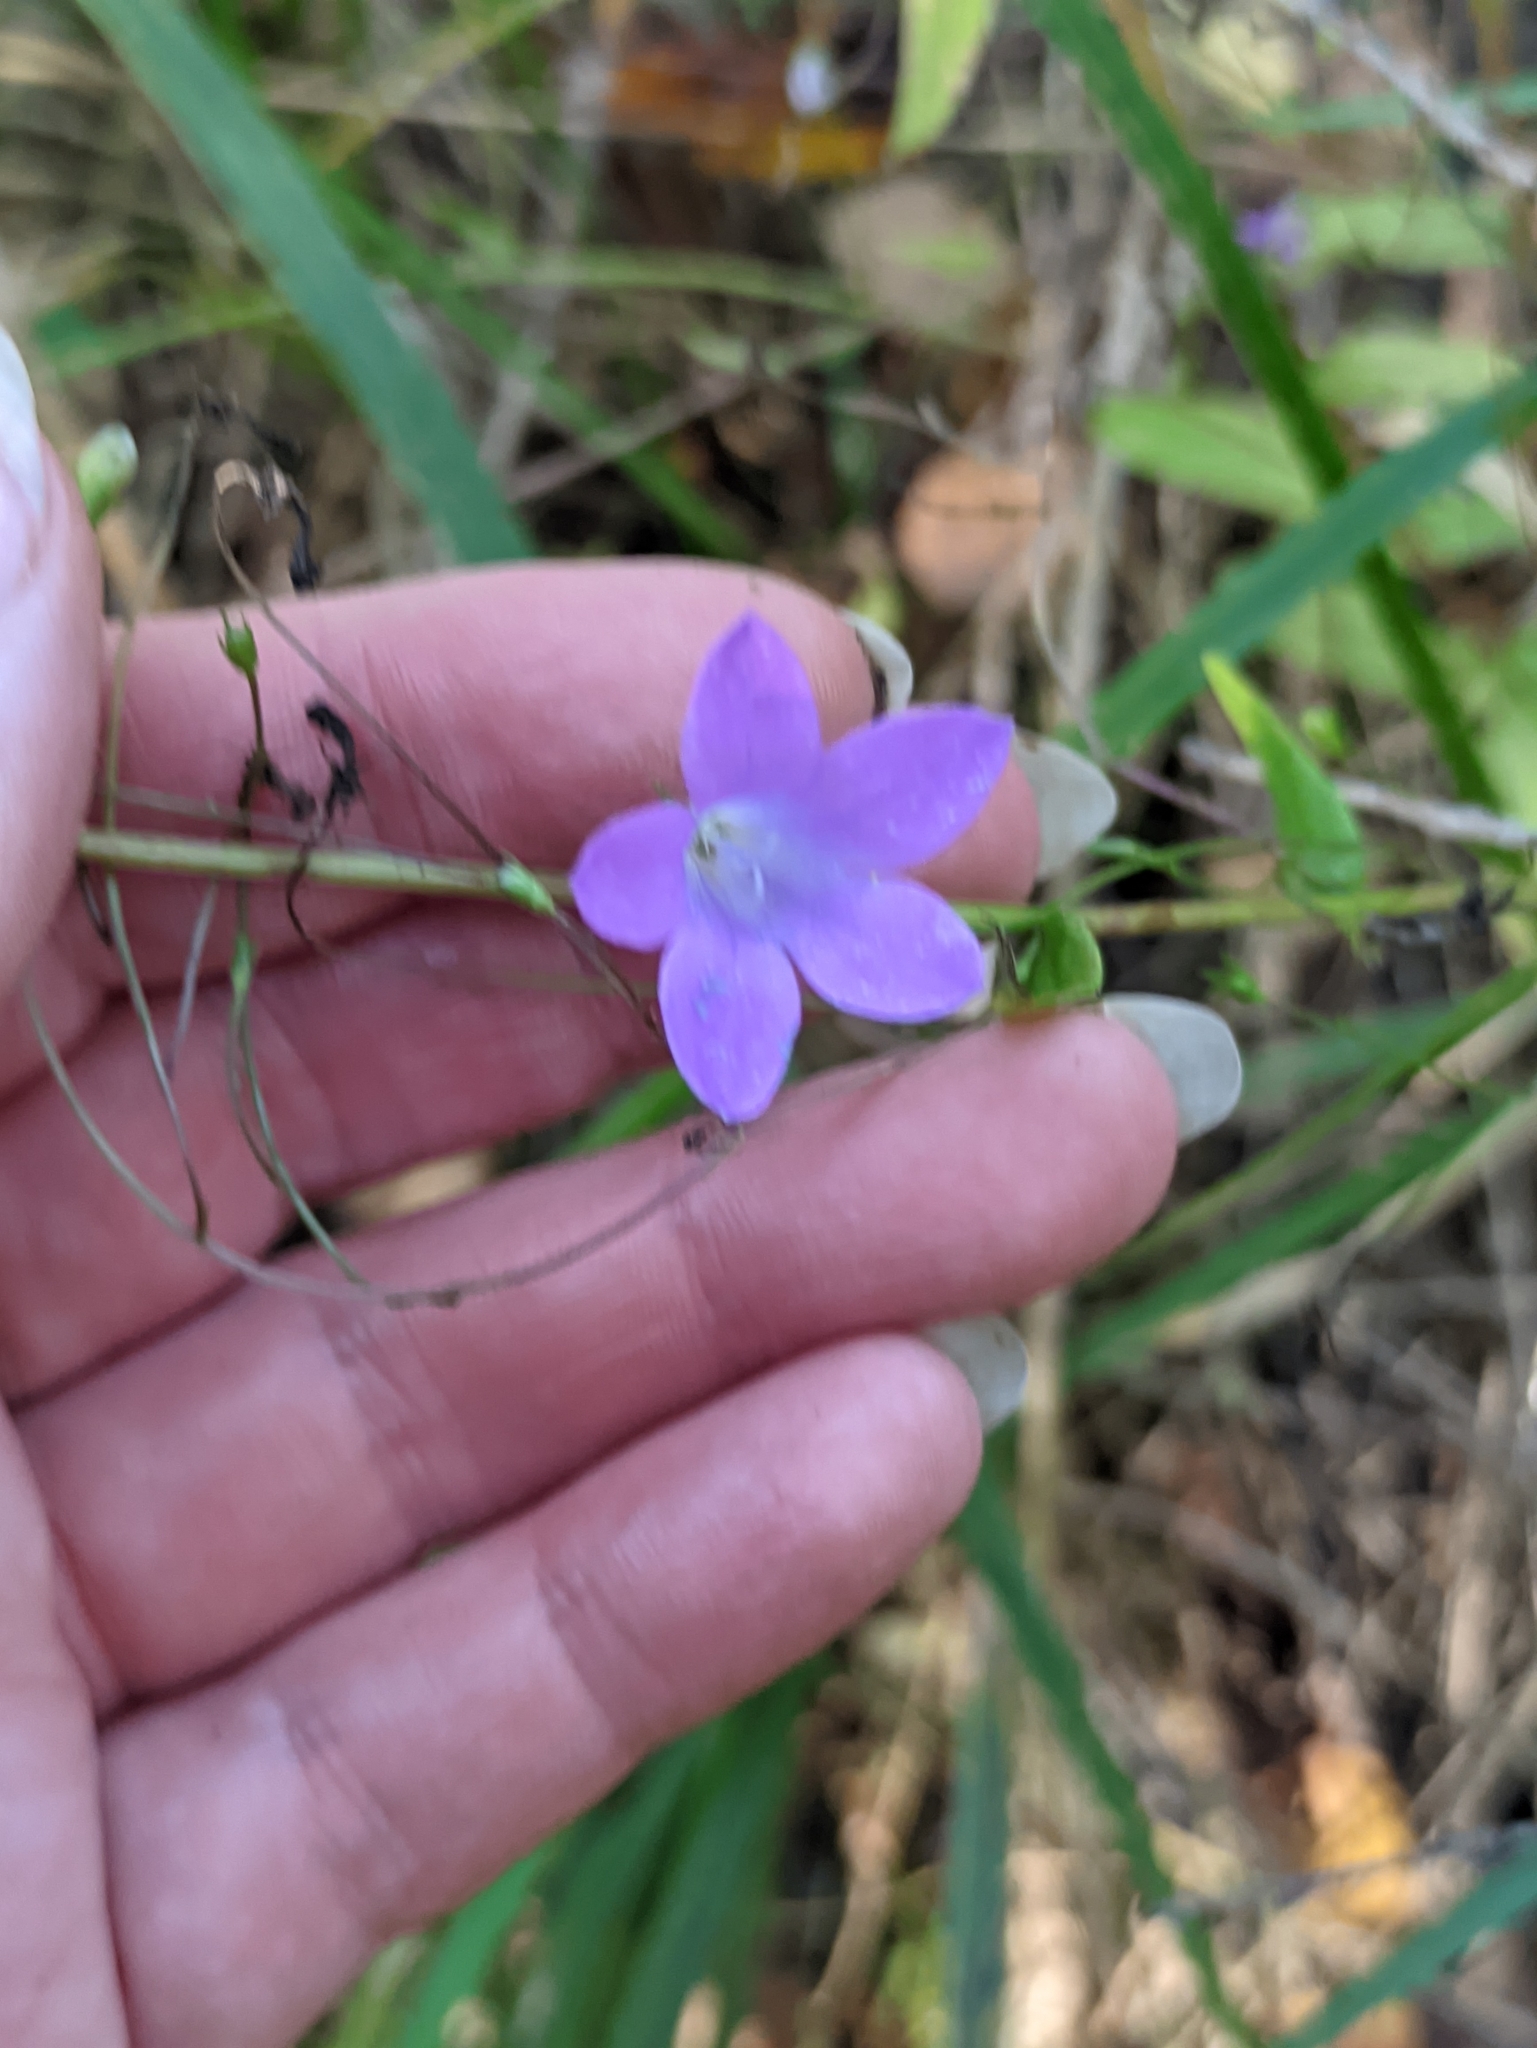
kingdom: Plantae
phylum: Tracheophyta
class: Magnoliopsida
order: Asterales
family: Campanulaceae
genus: Campanula
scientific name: Campanula patula
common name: Spreading bellflower
